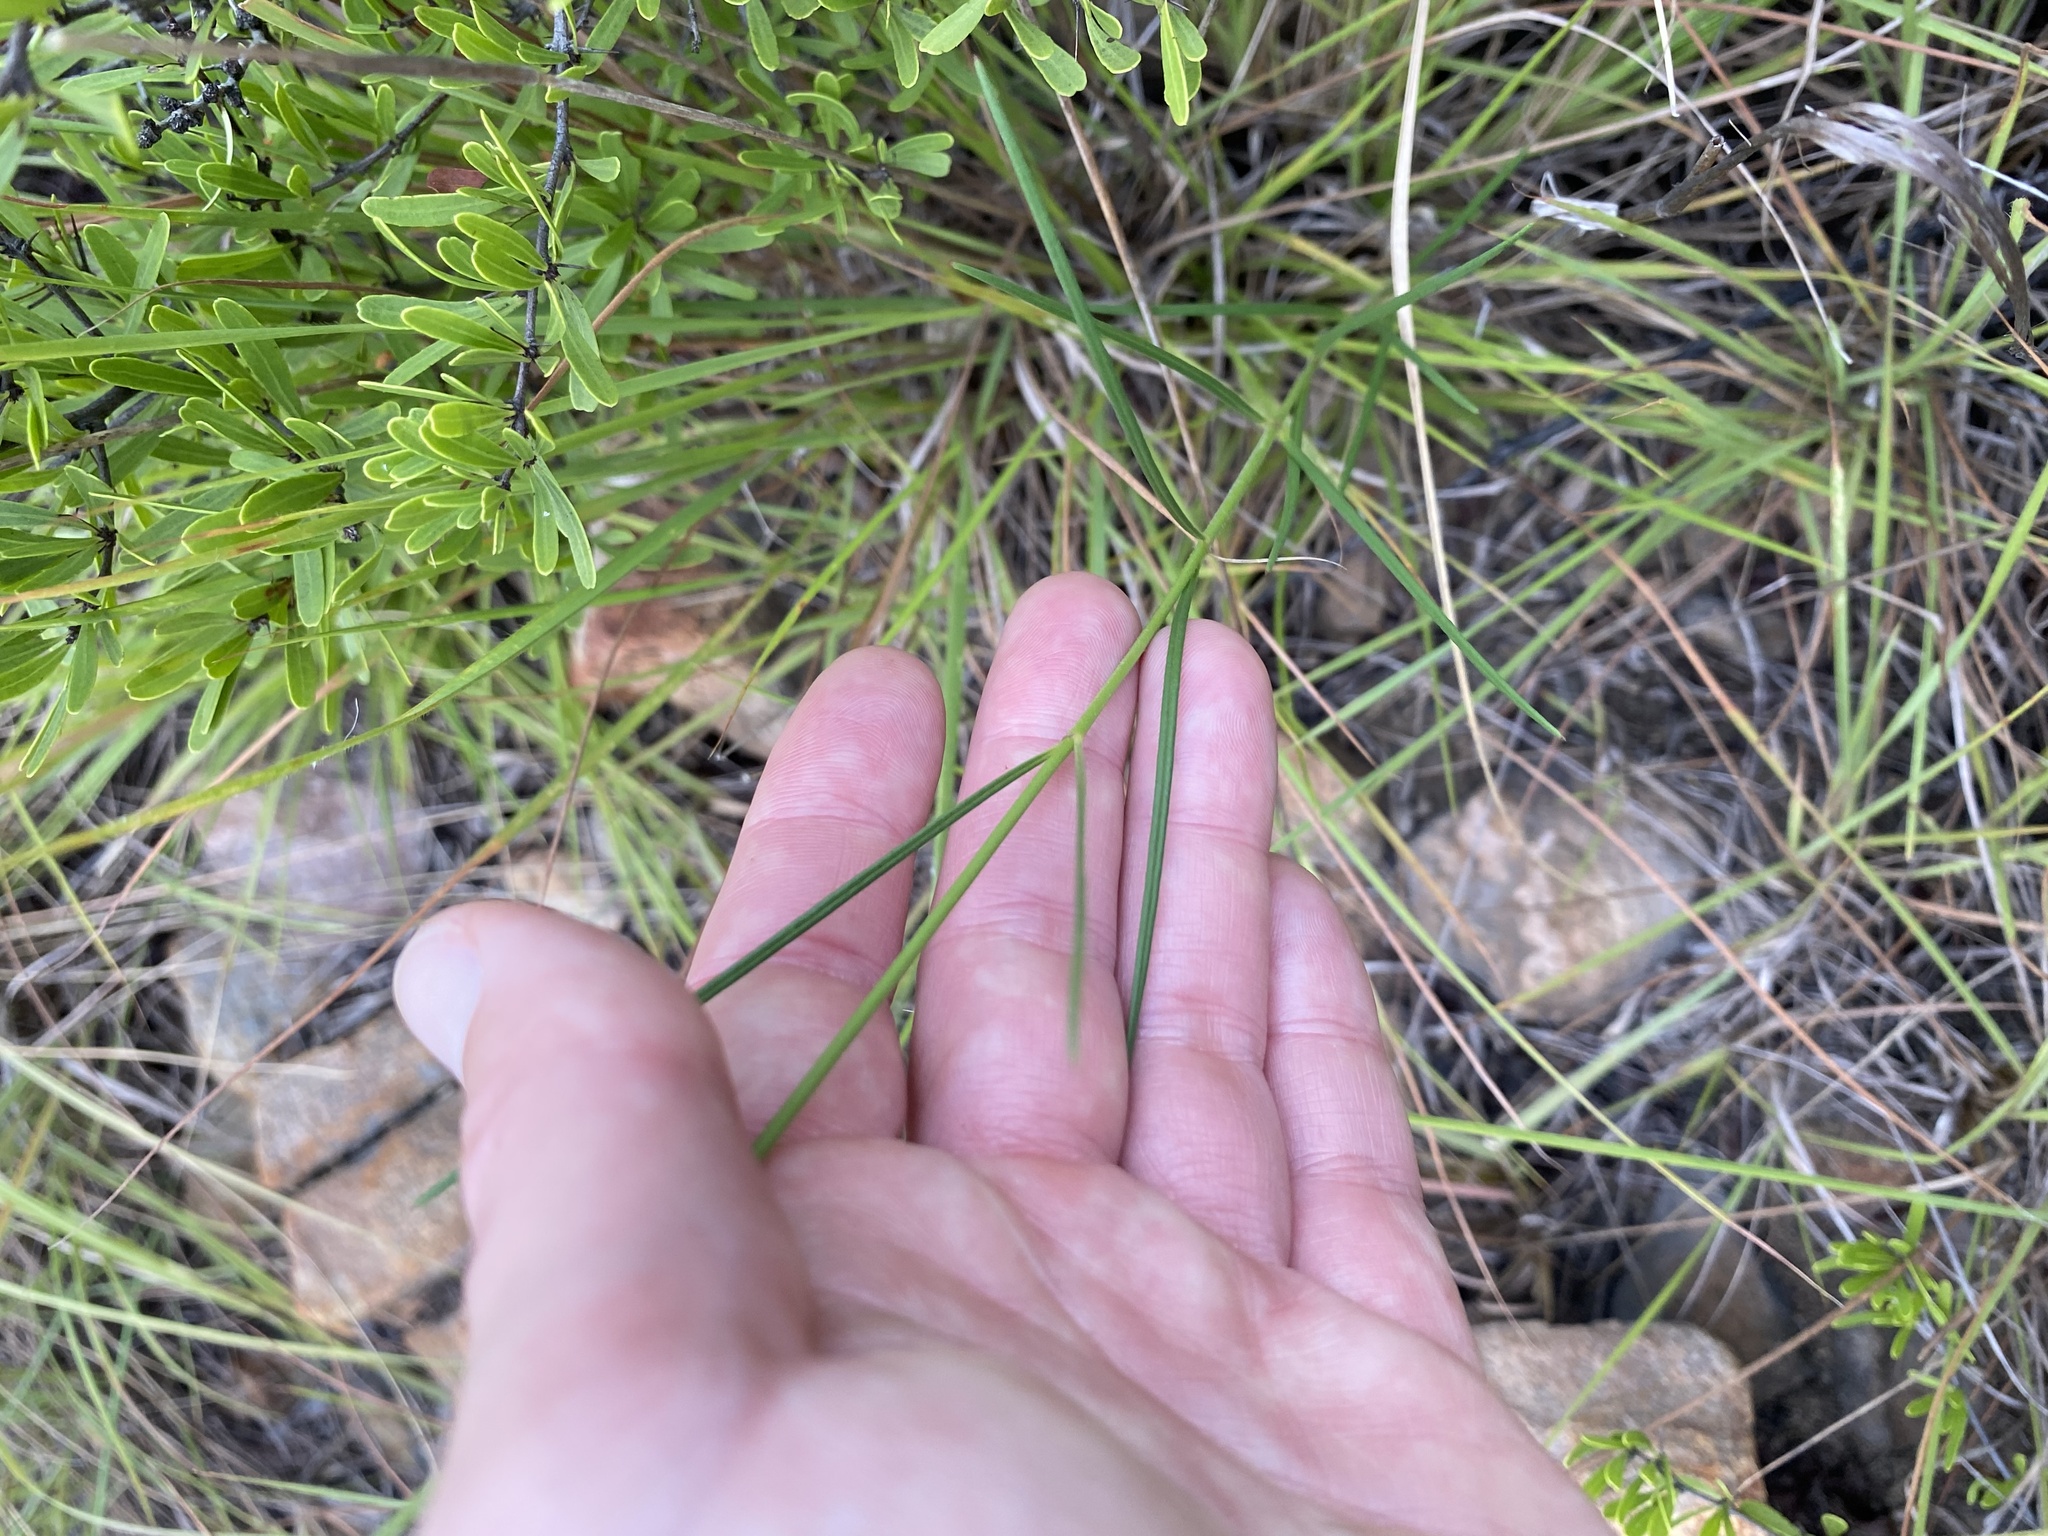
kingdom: Plantae
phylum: Tracheophyta
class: Magnoliopsida
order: Gentianales
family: Apocynaceae
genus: Asclepias
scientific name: Asclepias stellifera
